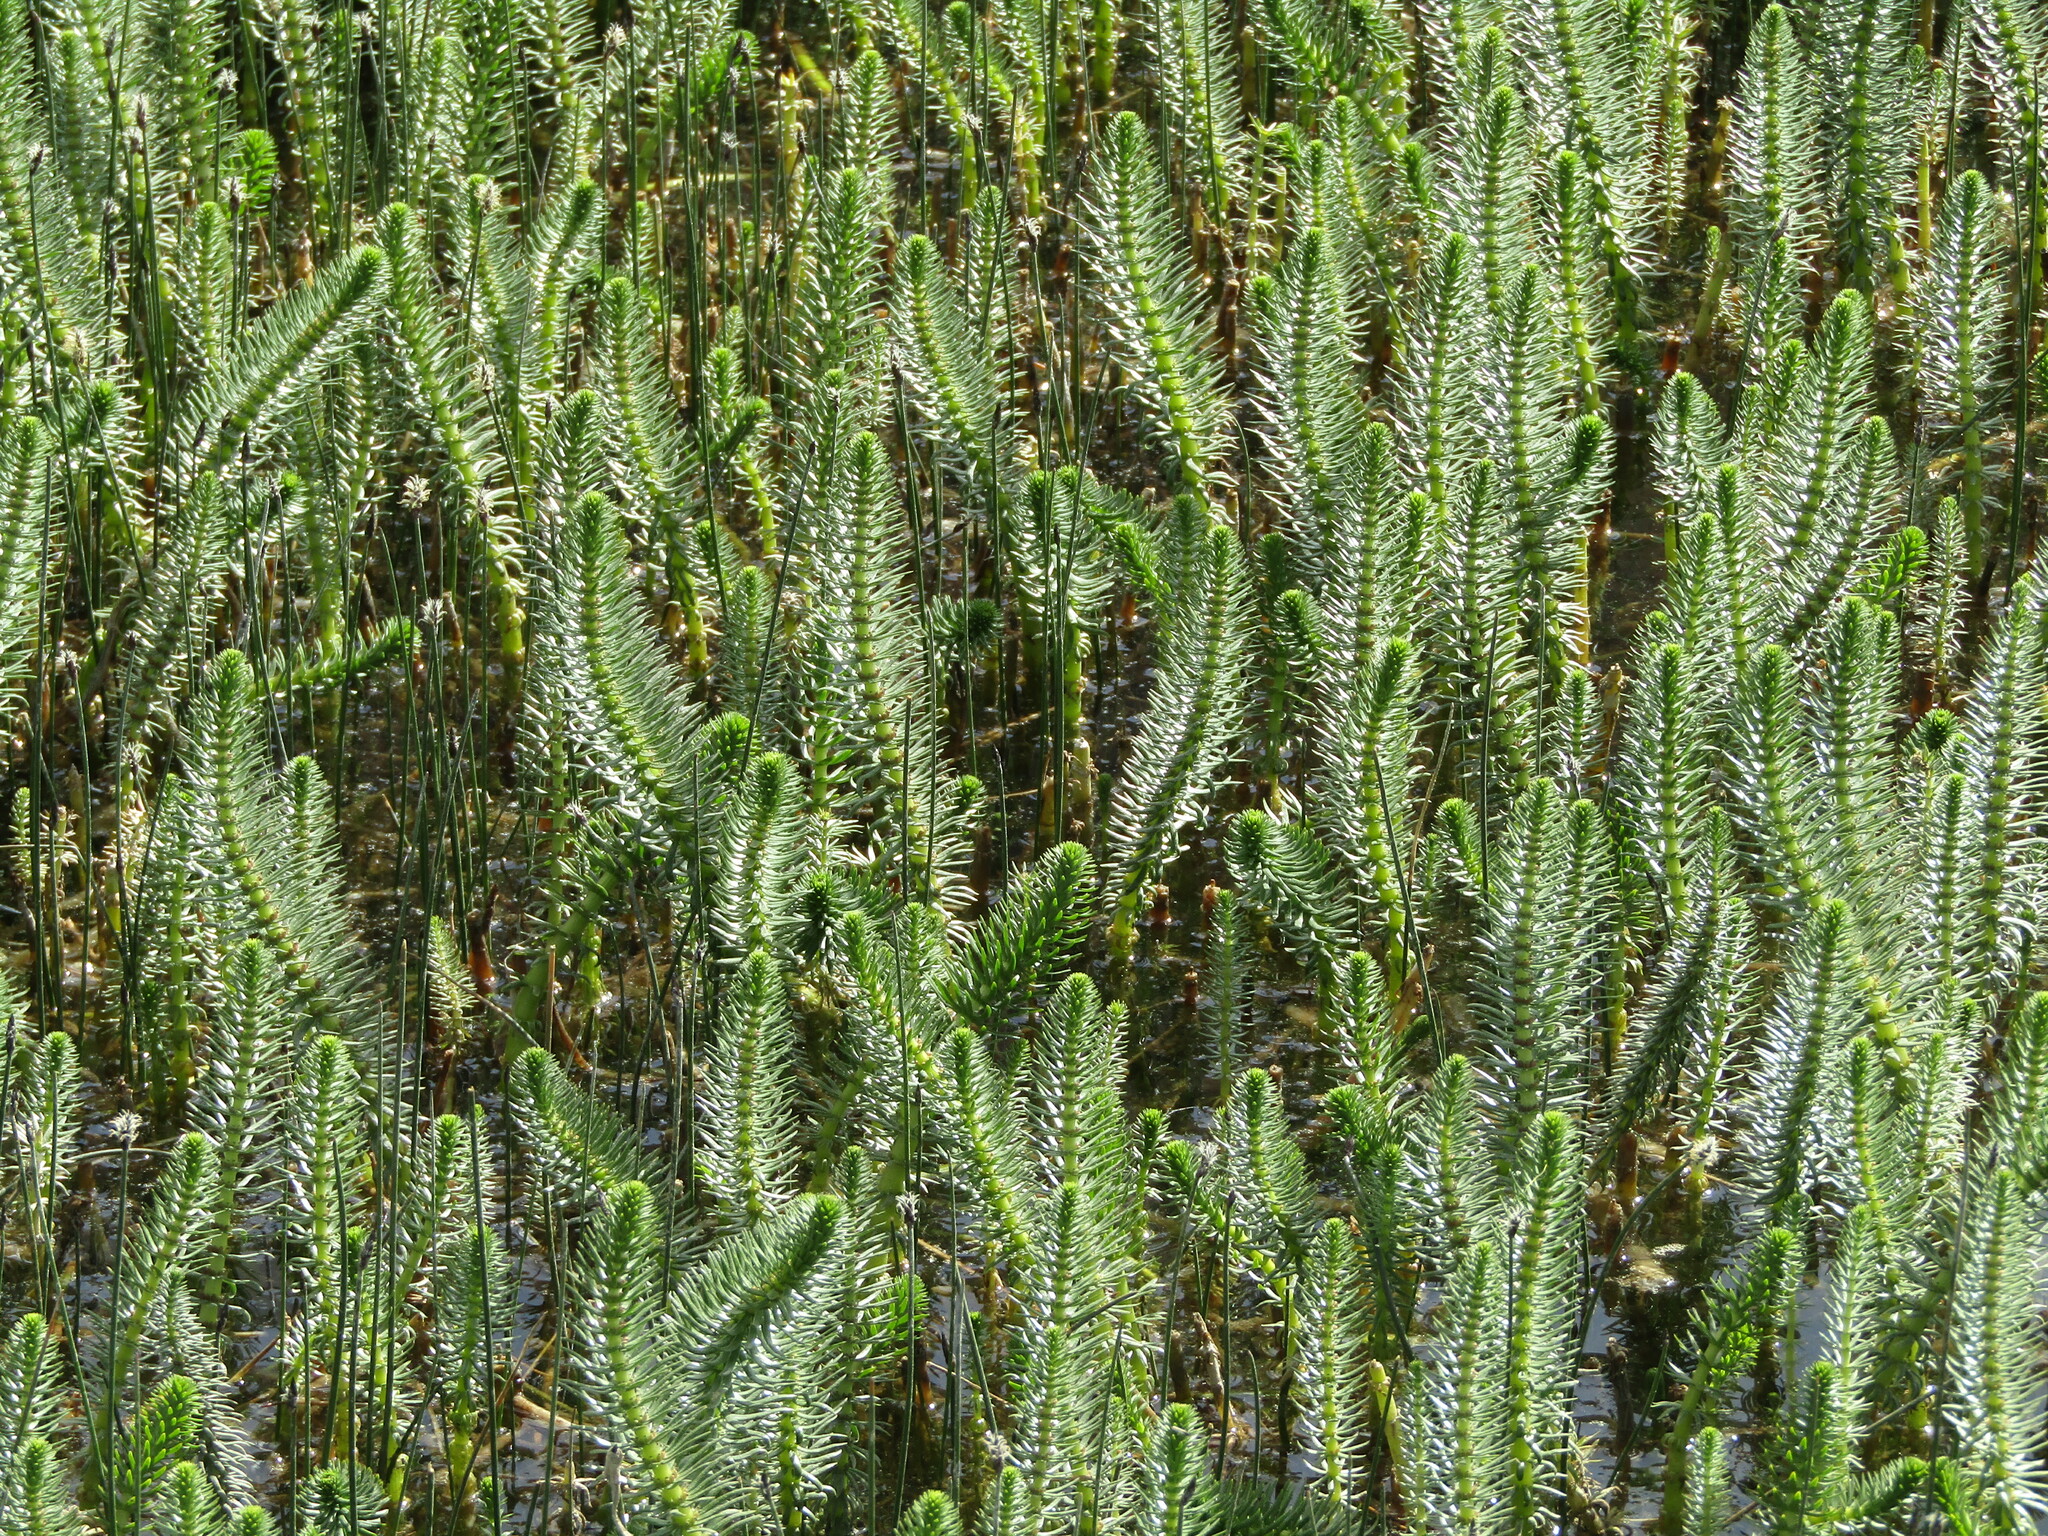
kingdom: Plantae
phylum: Tracheophyta
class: Magnoliopsida
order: Lamiales
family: Plantaginaceae
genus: Hippuris
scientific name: Hippuris vulgaris
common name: Mare's-tail
